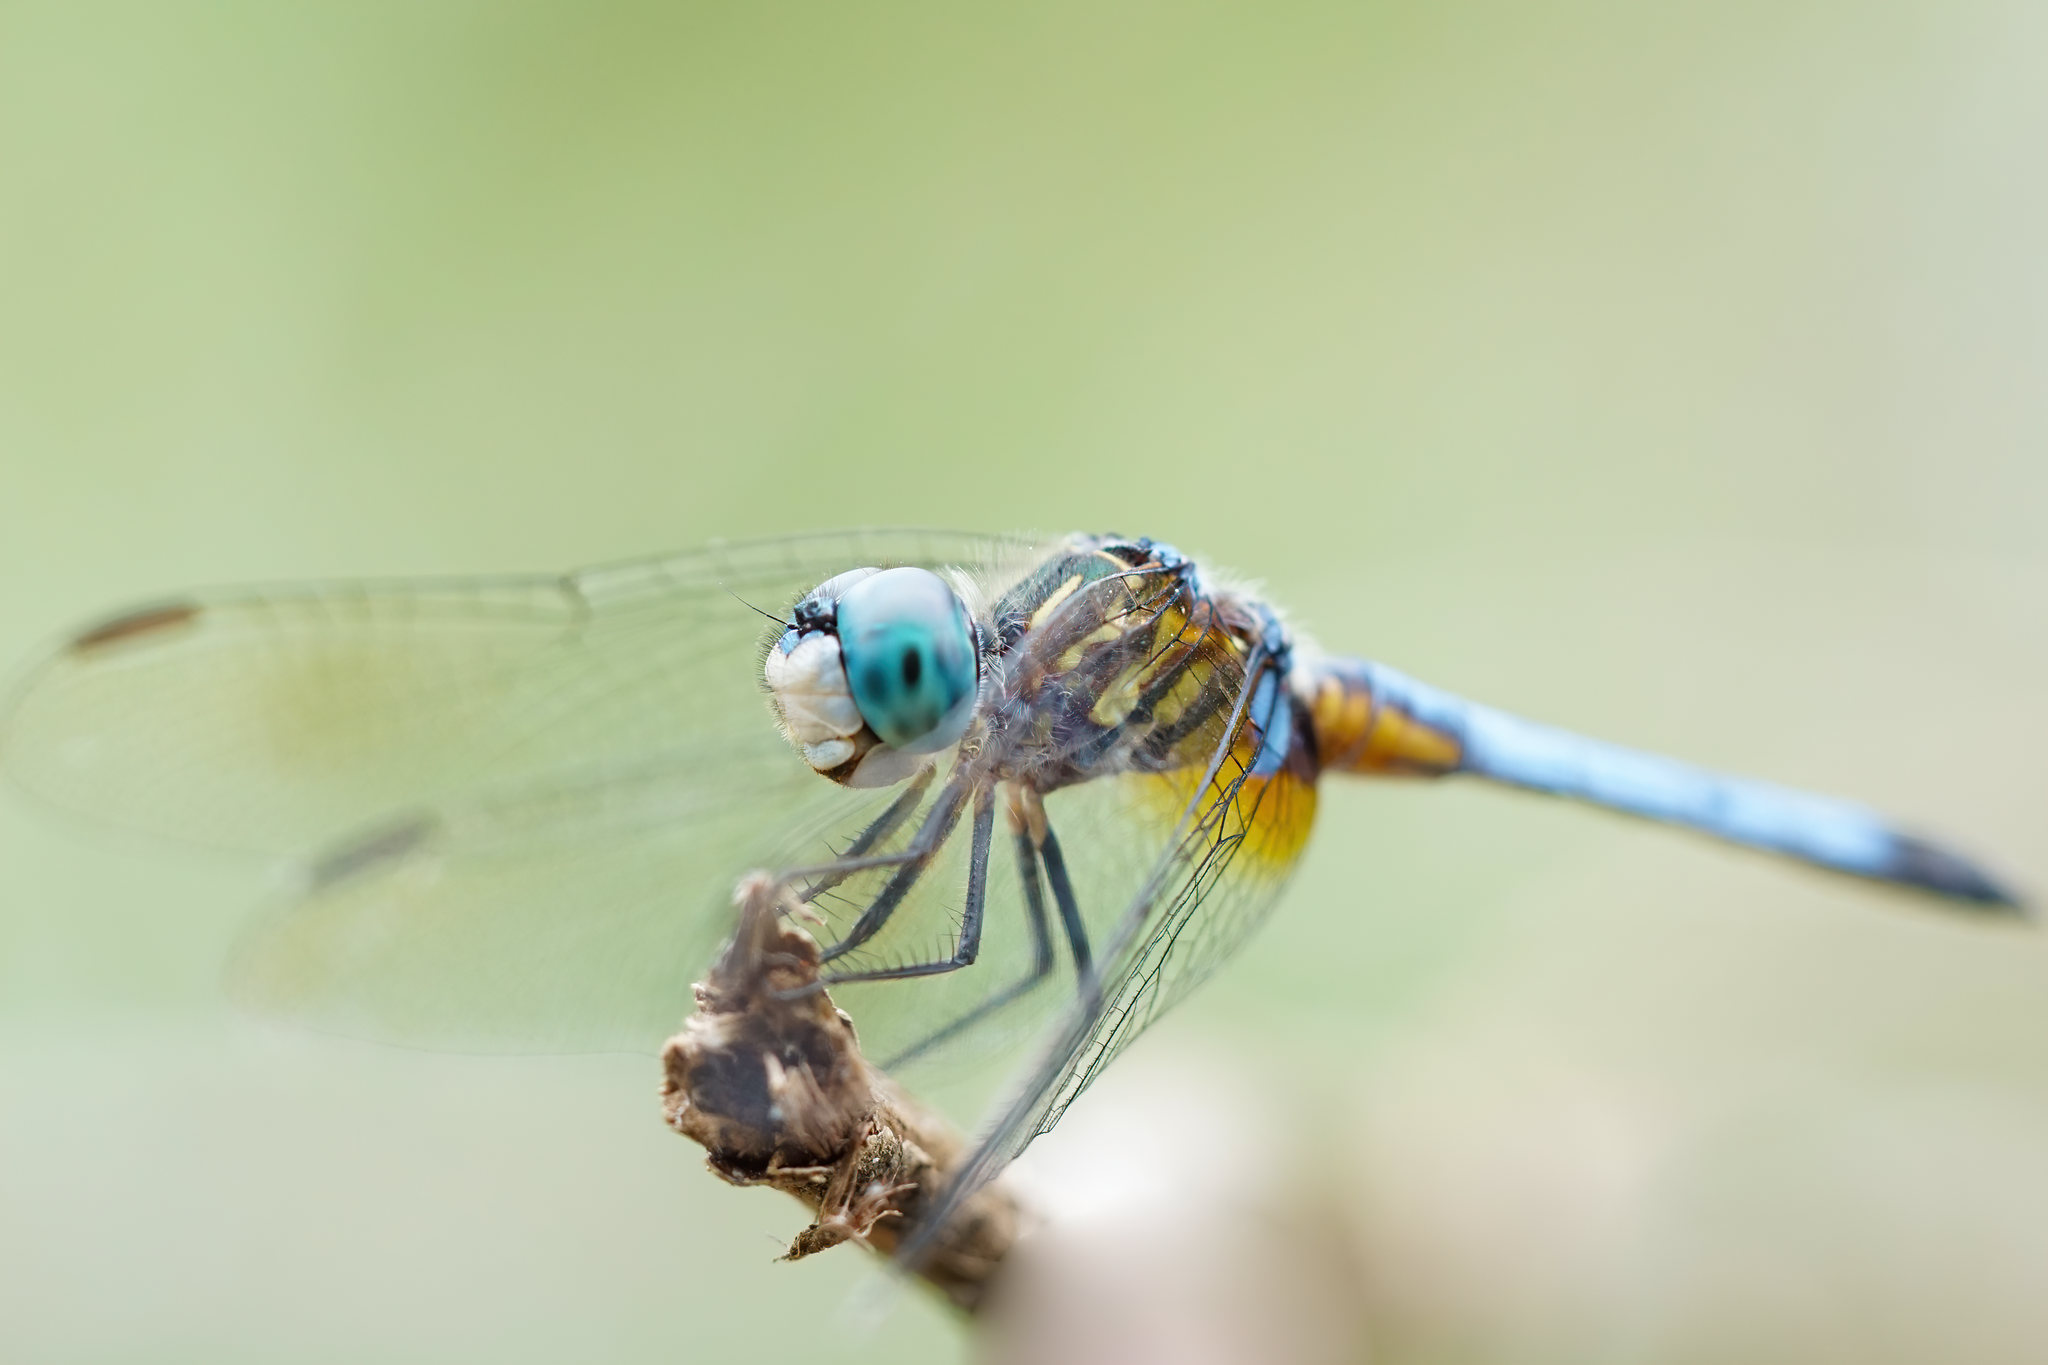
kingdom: Animalia
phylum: Arthropoda
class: Insecta
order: Odonata
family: Libellulidae
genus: Pachydiplax
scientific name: Pachydiplax longipennis
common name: Blue dasher
